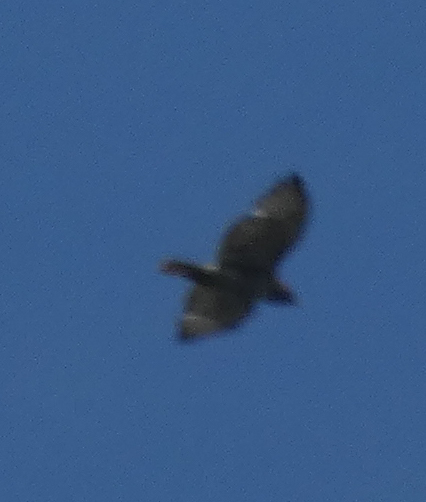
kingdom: Animalia
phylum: Chordata
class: Aves
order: Accipitriformes
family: Accipitridae
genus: Buteo
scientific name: Buteo jamaicensis
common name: Red-tailed hawk
